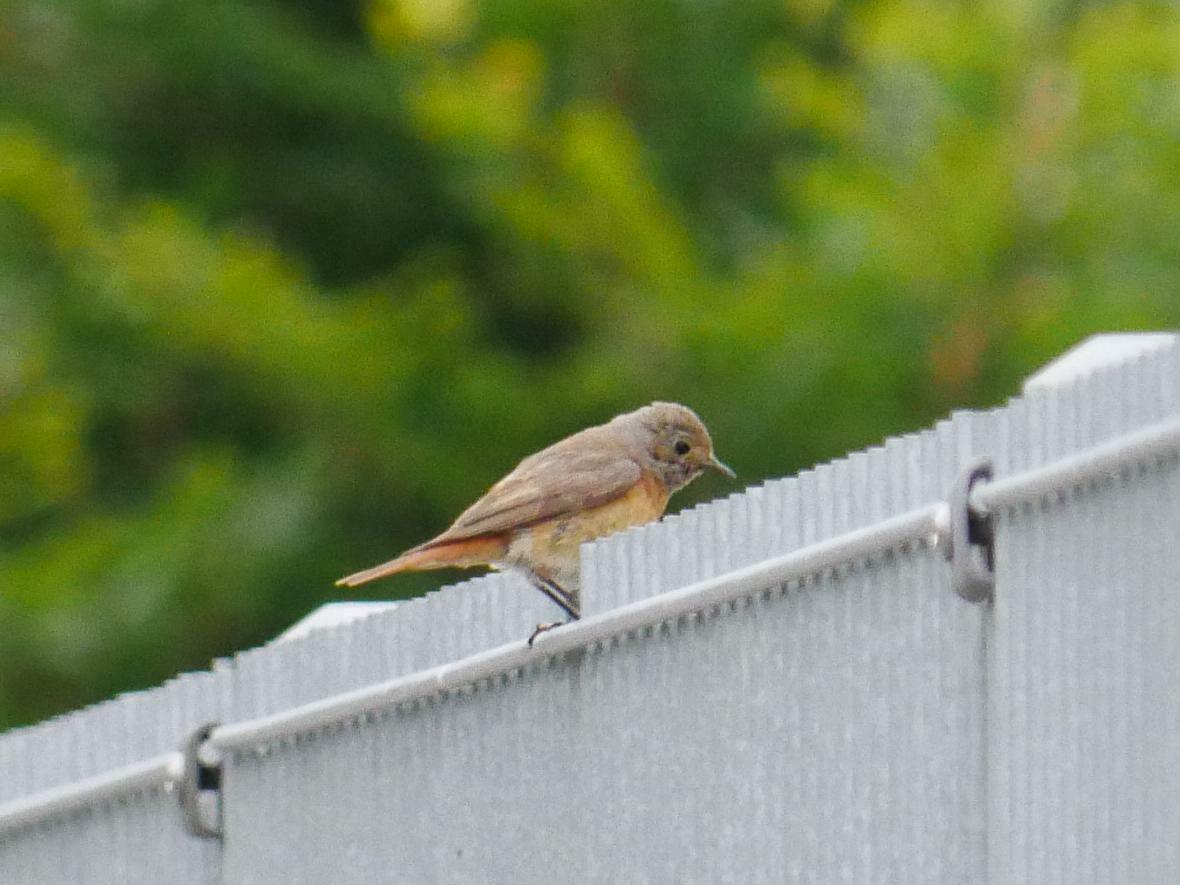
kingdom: Animalia
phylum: Chordata
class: Aves
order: Passeriformes
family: Muscicapidae
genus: Phoenicurus
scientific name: Phoenicurus phoenicurus
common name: Common redstart
